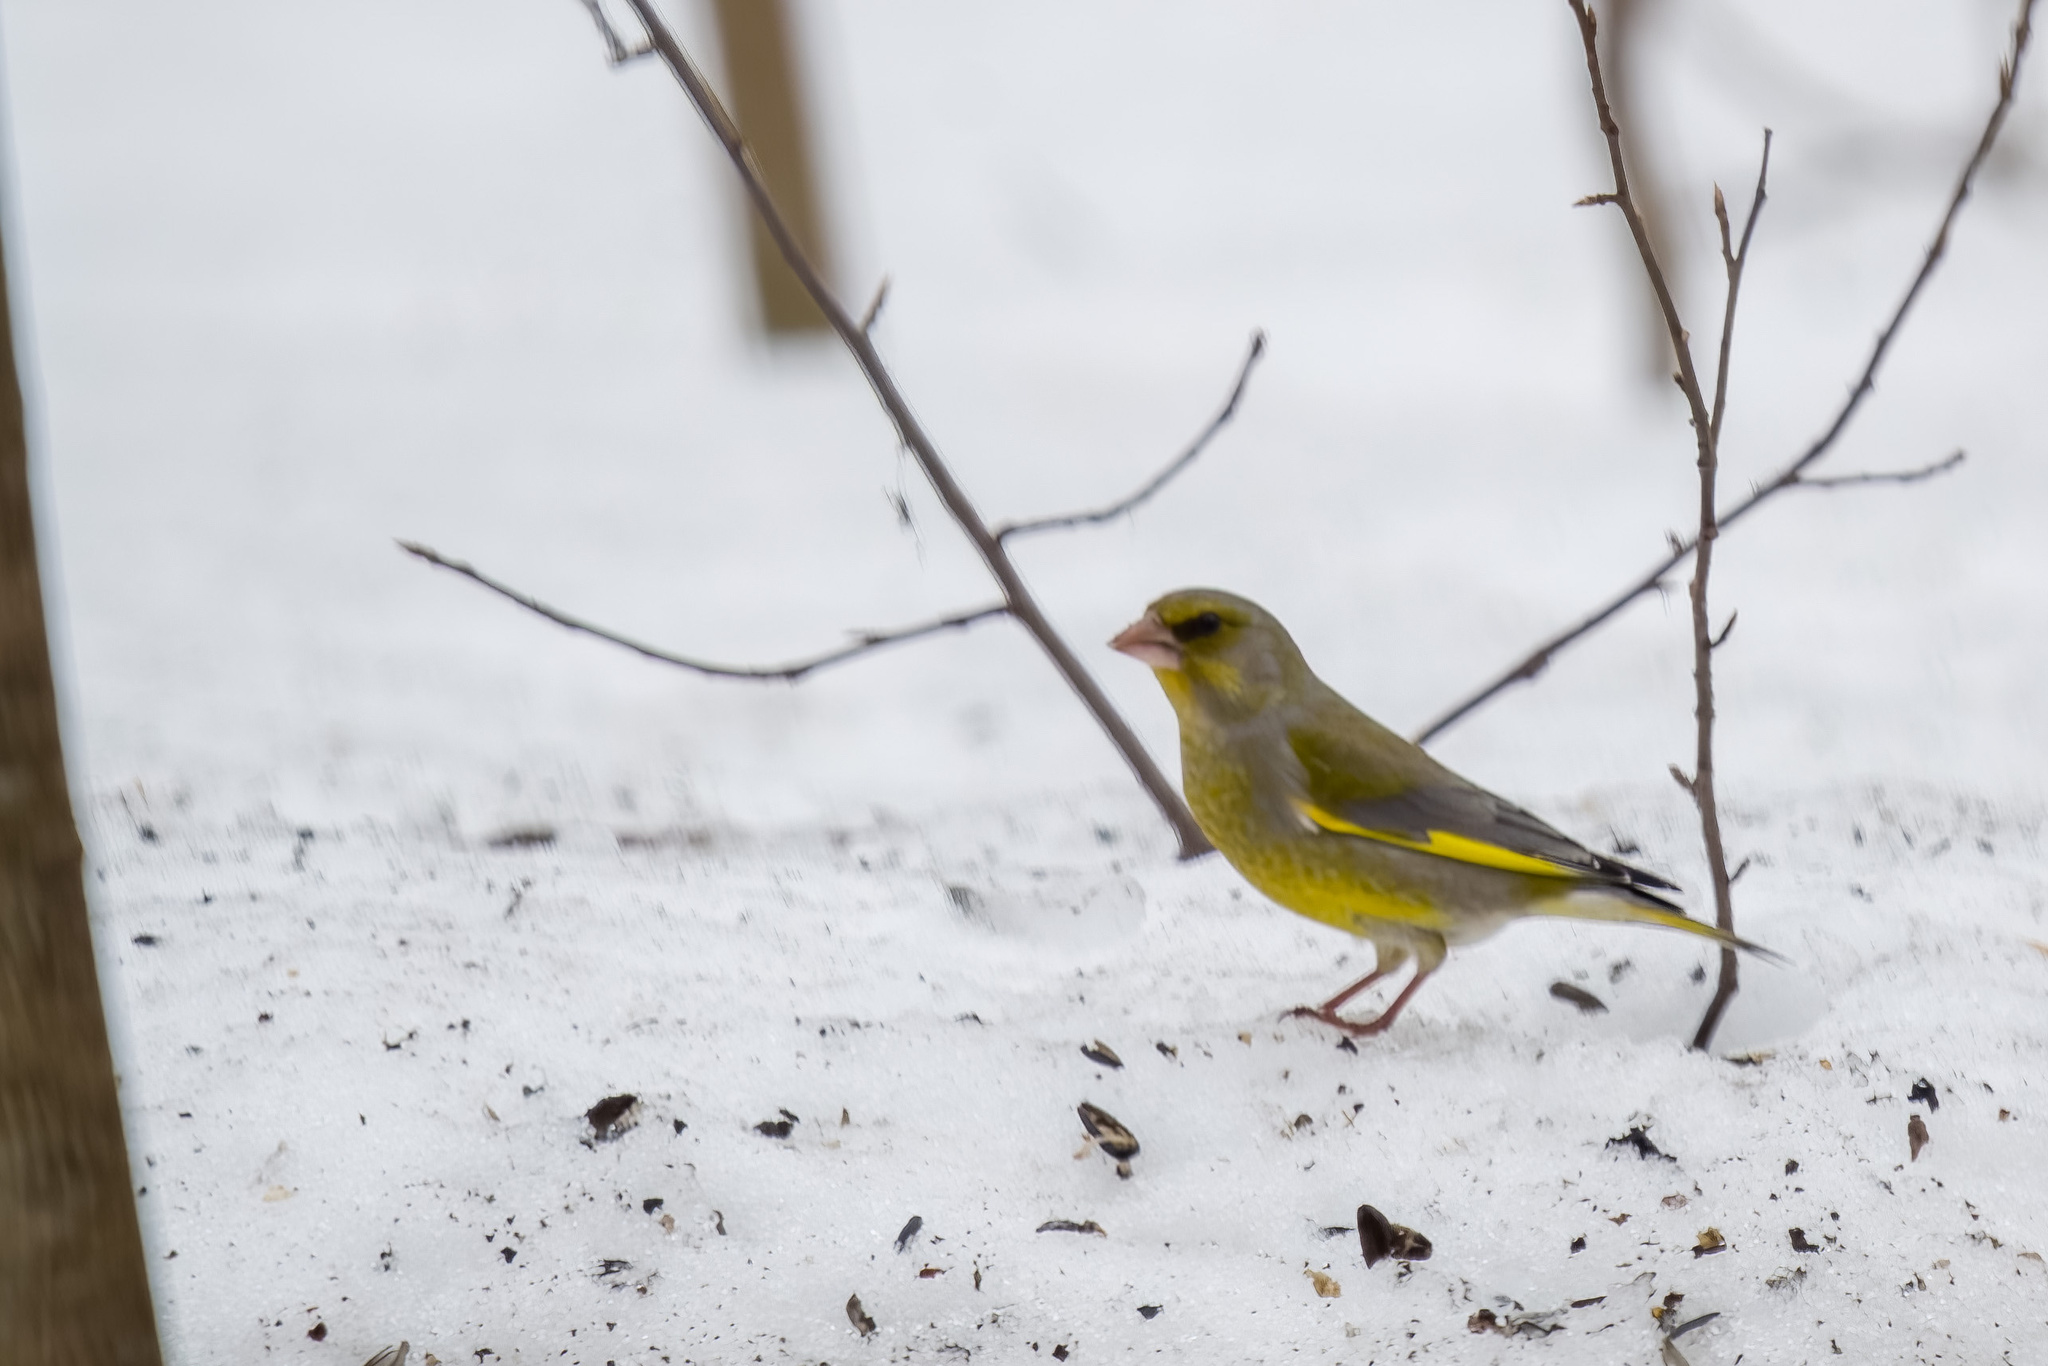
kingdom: Plantae
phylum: Tracheophyta
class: Liliopsida
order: Poales
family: Poaceae
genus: Chloris
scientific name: Chloris chloris
